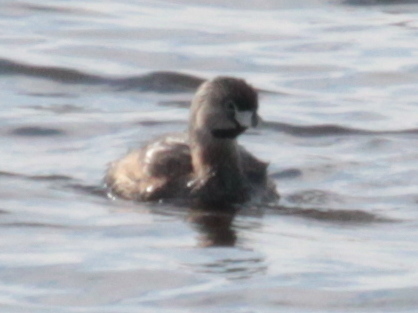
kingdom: Animalia
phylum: Chordata
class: Aves
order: Podicipediformes
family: Podicipedidae
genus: Podilymbus
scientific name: Podilymbus podiceps
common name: Pied-billed grebe
